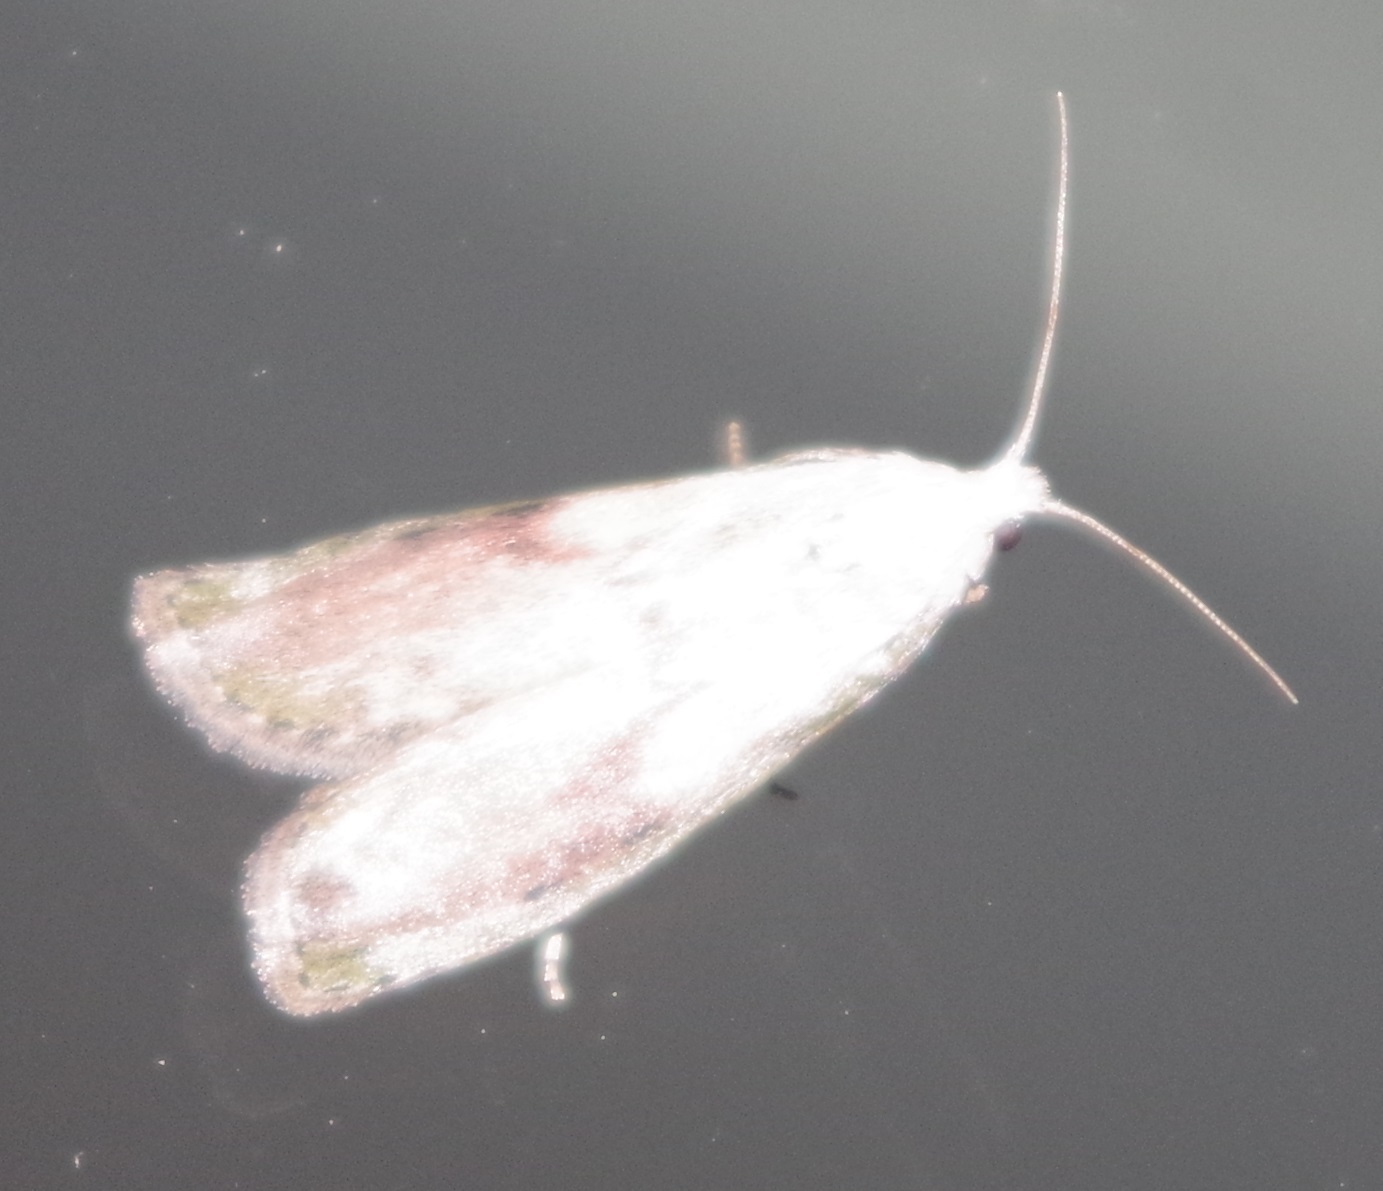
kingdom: Animalia
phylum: Arthropoda
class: Insecta
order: Lepidoptera
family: Pyralidae
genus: Aphomia
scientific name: Aphomia sociella
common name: Bee moth
